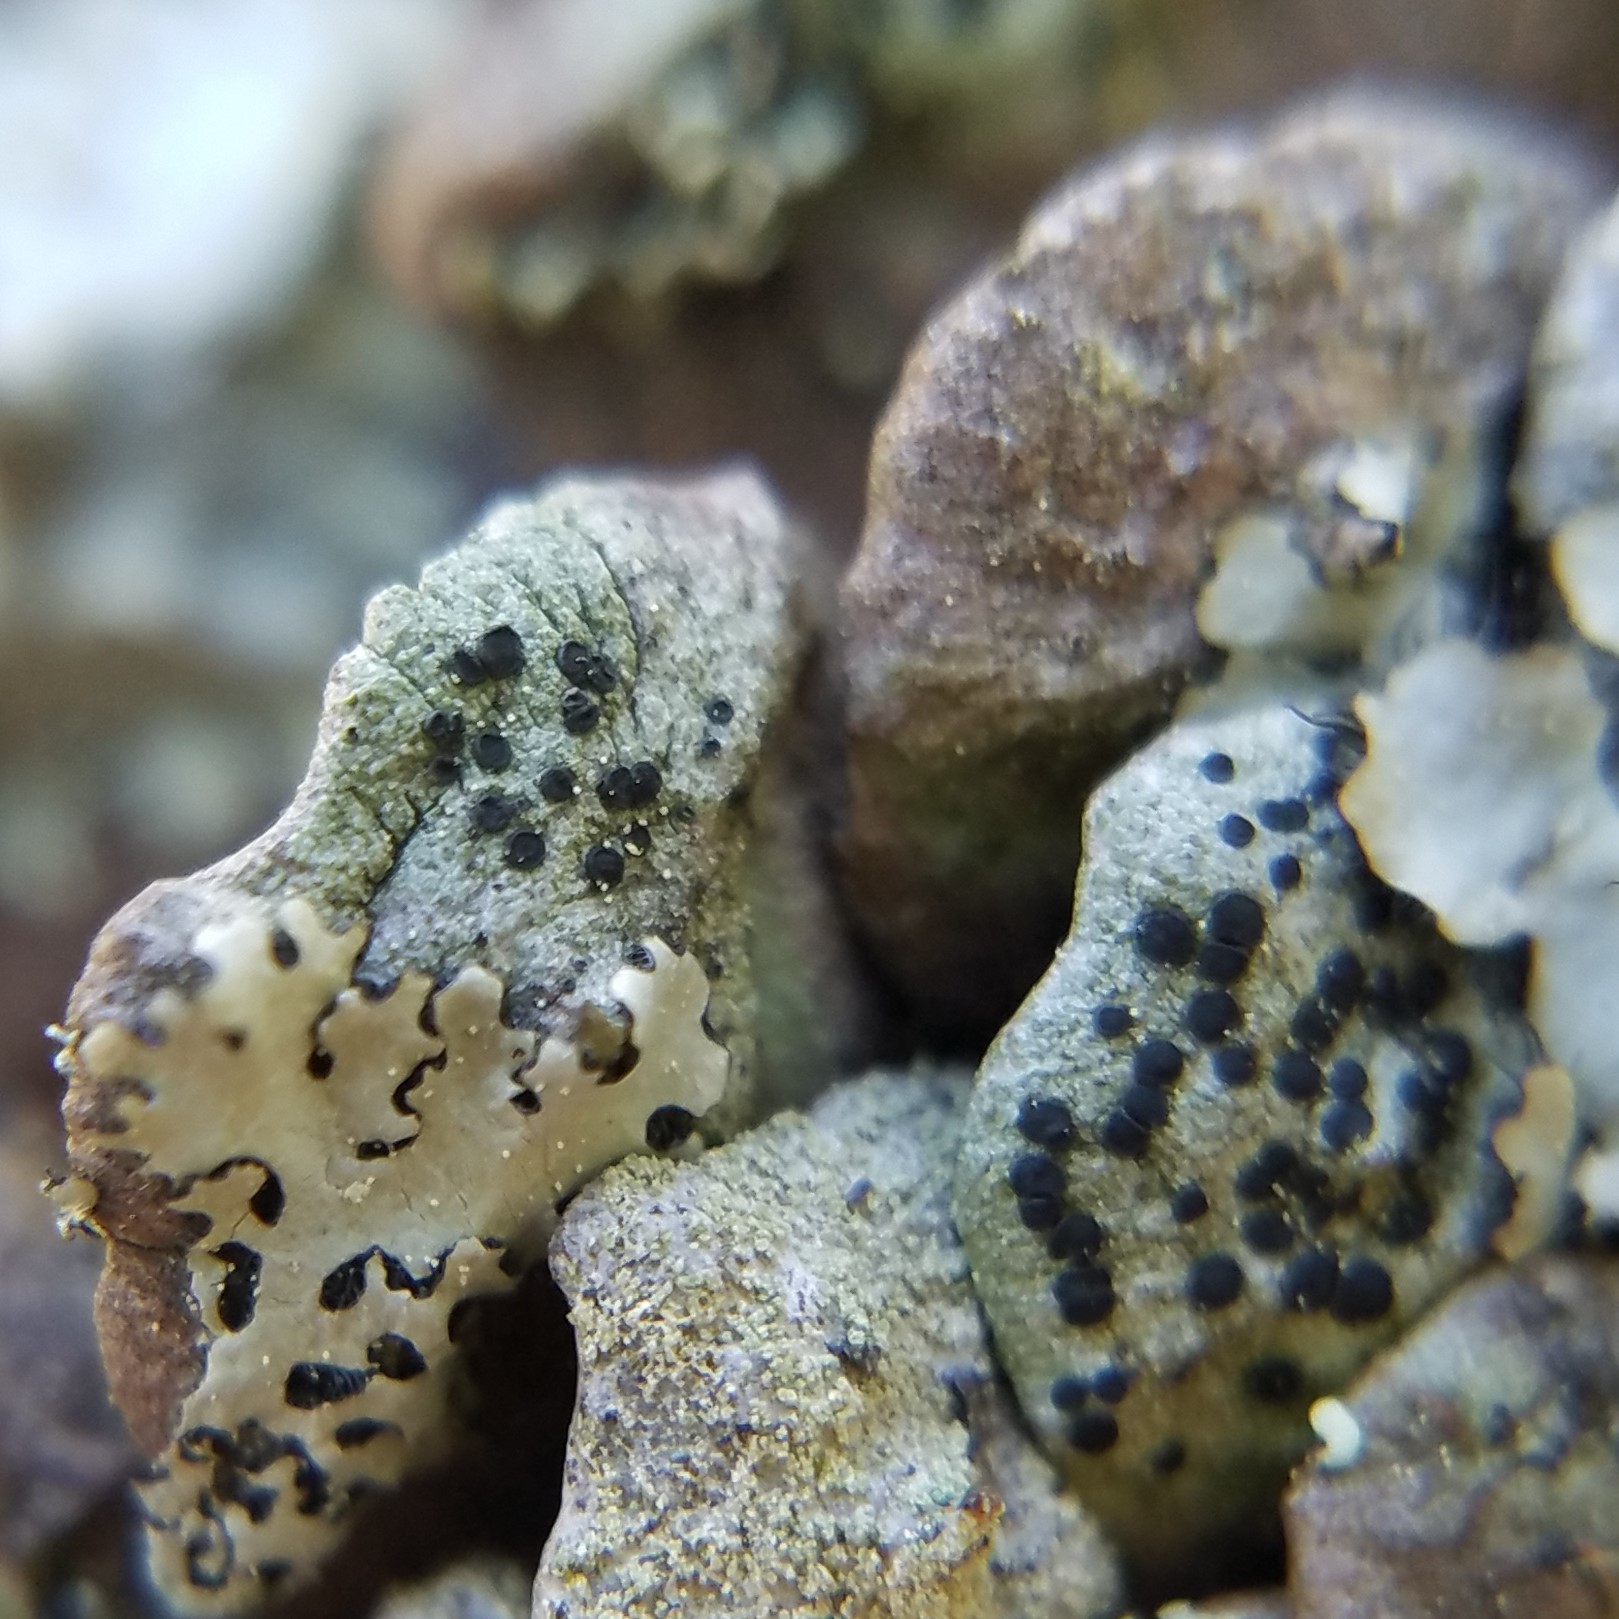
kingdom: Fungi
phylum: Ascomycota
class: Lecanoromycetes
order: Caliciales
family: Caliciaceae
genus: Amandinea
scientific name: Amandinea punctata
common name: Tiny button lichen
